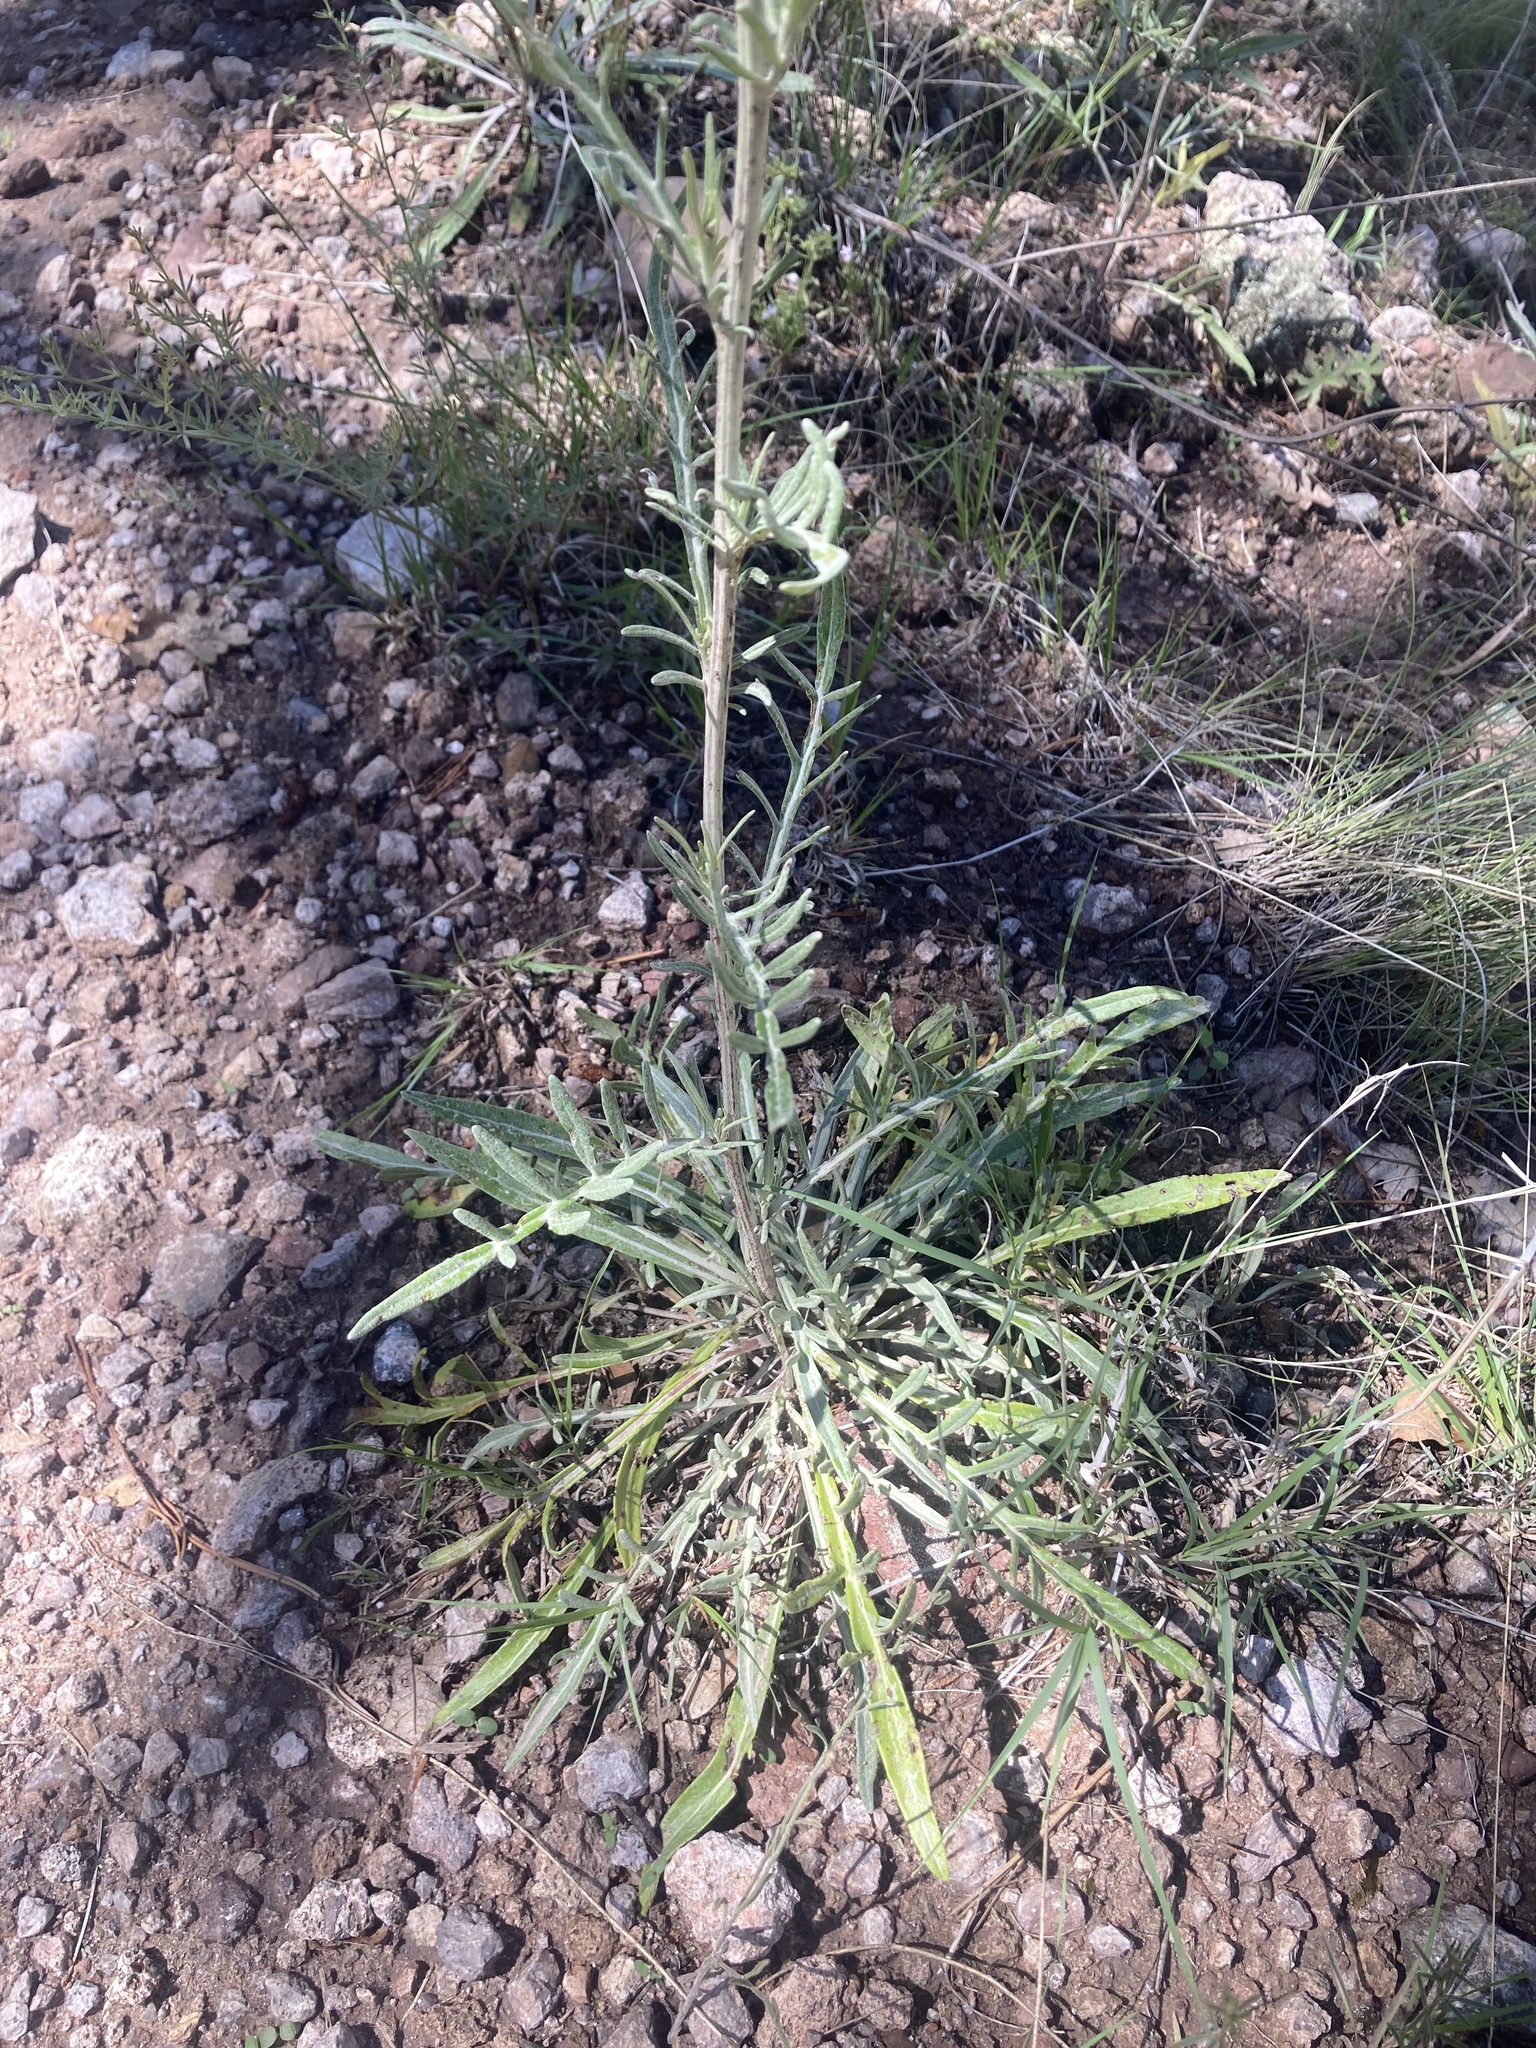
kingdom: Plantae
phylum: Tracheophyta
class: Magnoliopsida
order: Asterales
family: Asteraceae
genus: Hymenopappus
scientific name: Hymenopappus mexicanus
